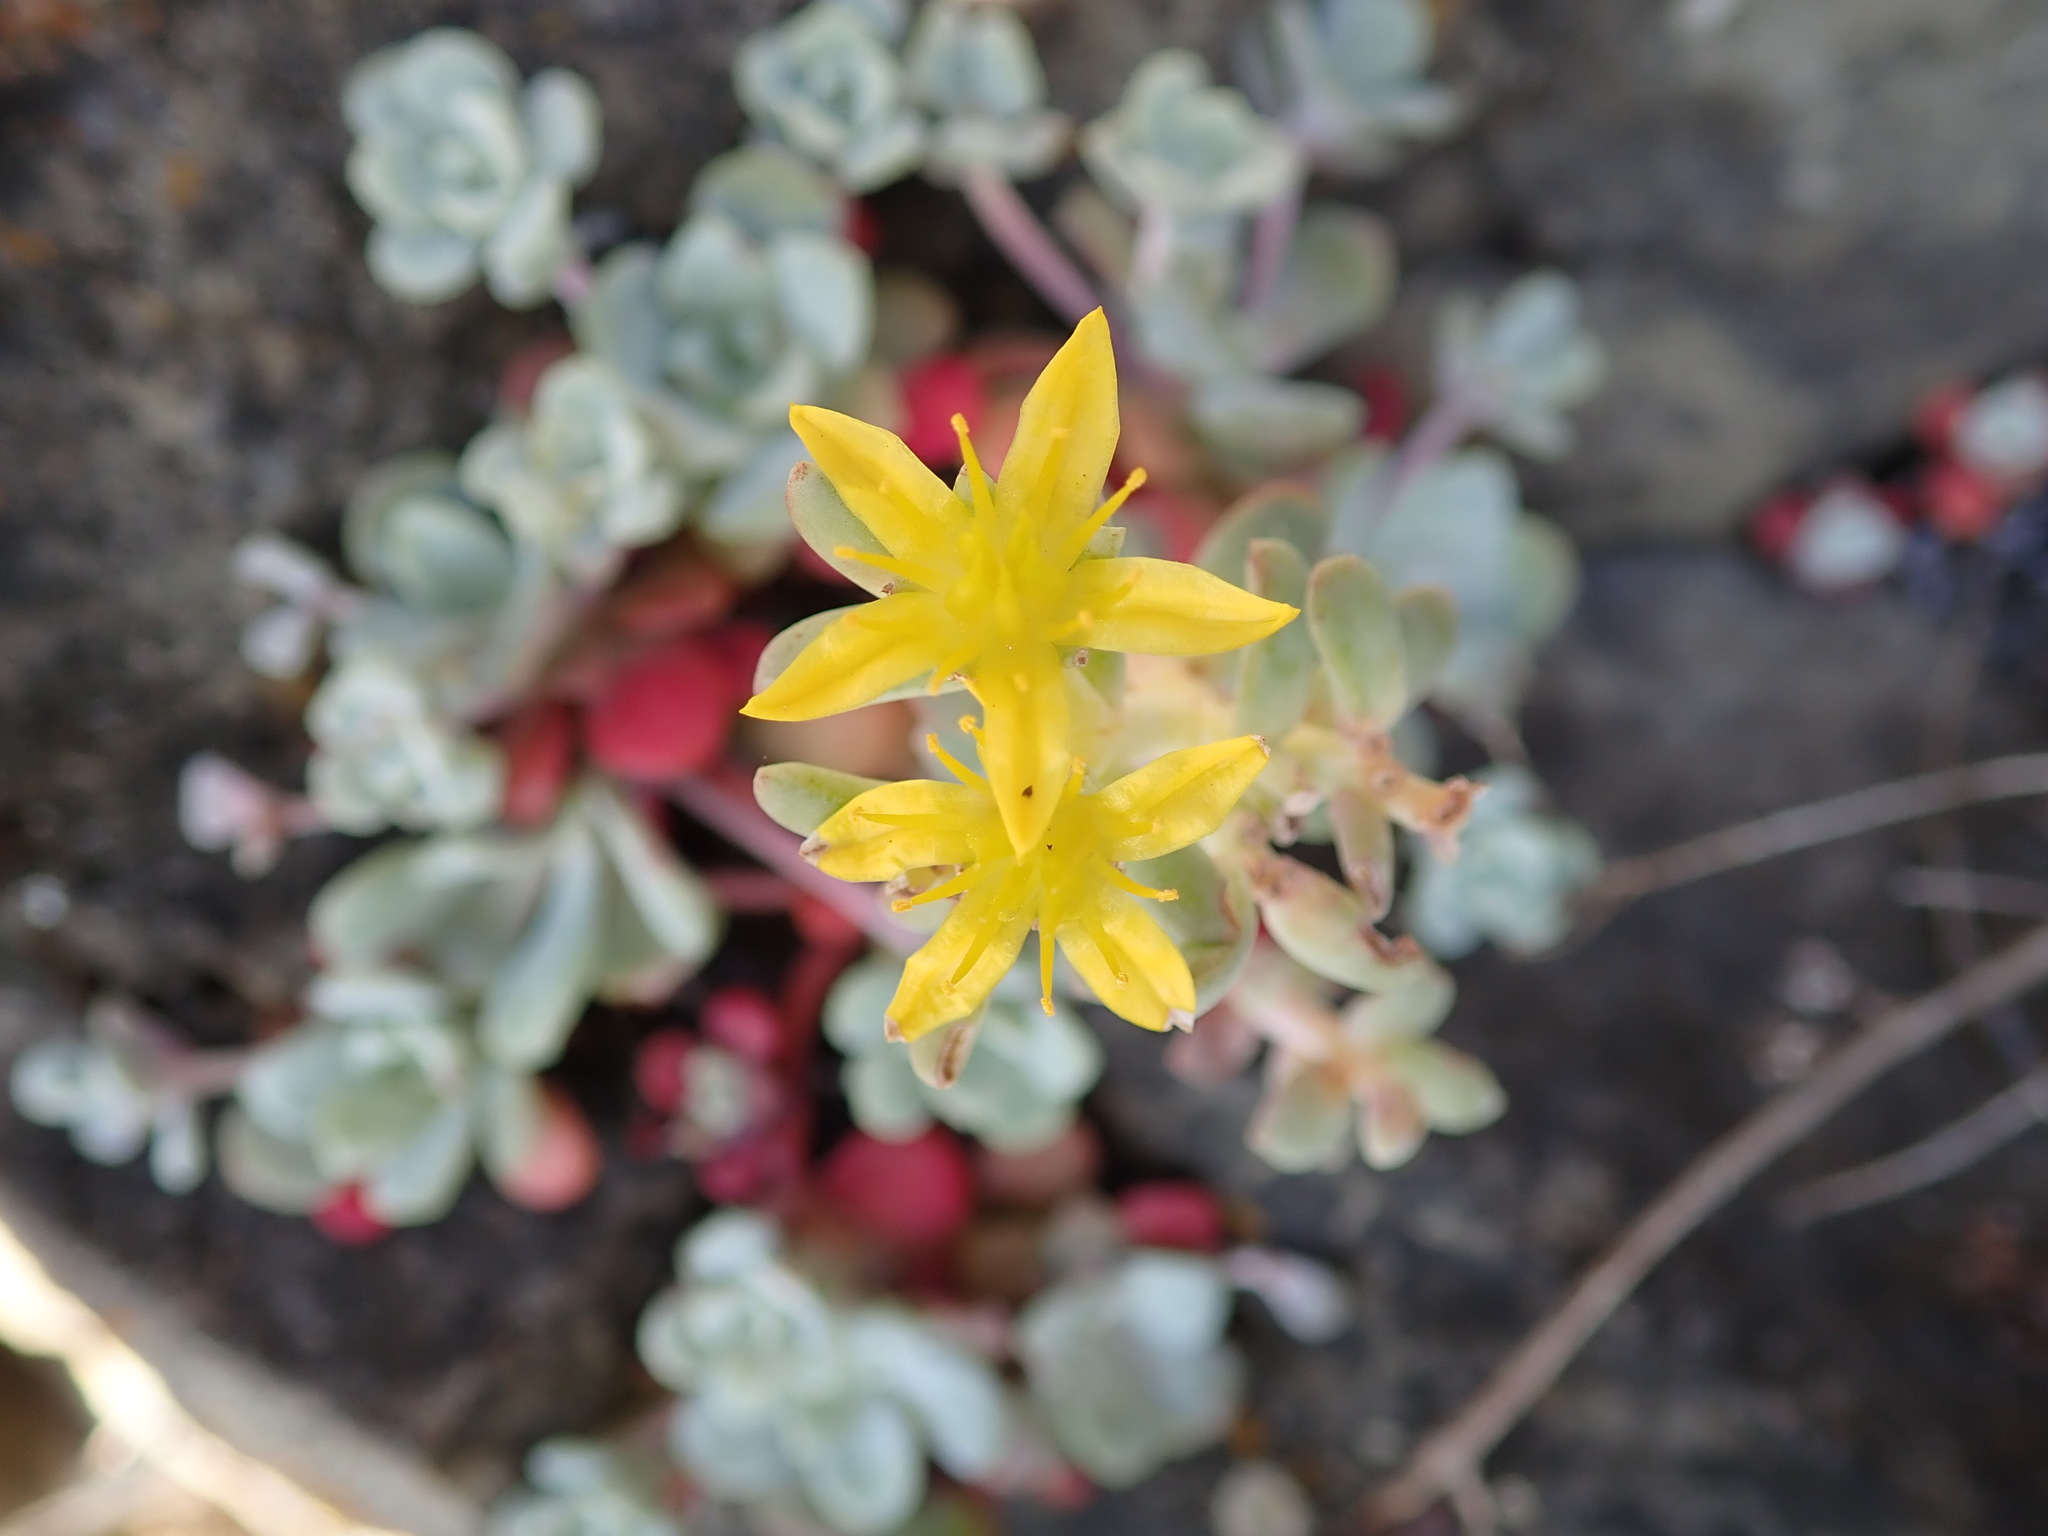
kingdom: Plantae
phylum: Tracheophyta
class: Magnoliopsida
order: Saxifragales
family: Crassulaceae
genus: Sedum
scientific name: Sedum spathulifolium
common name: Colorado stonecrop
